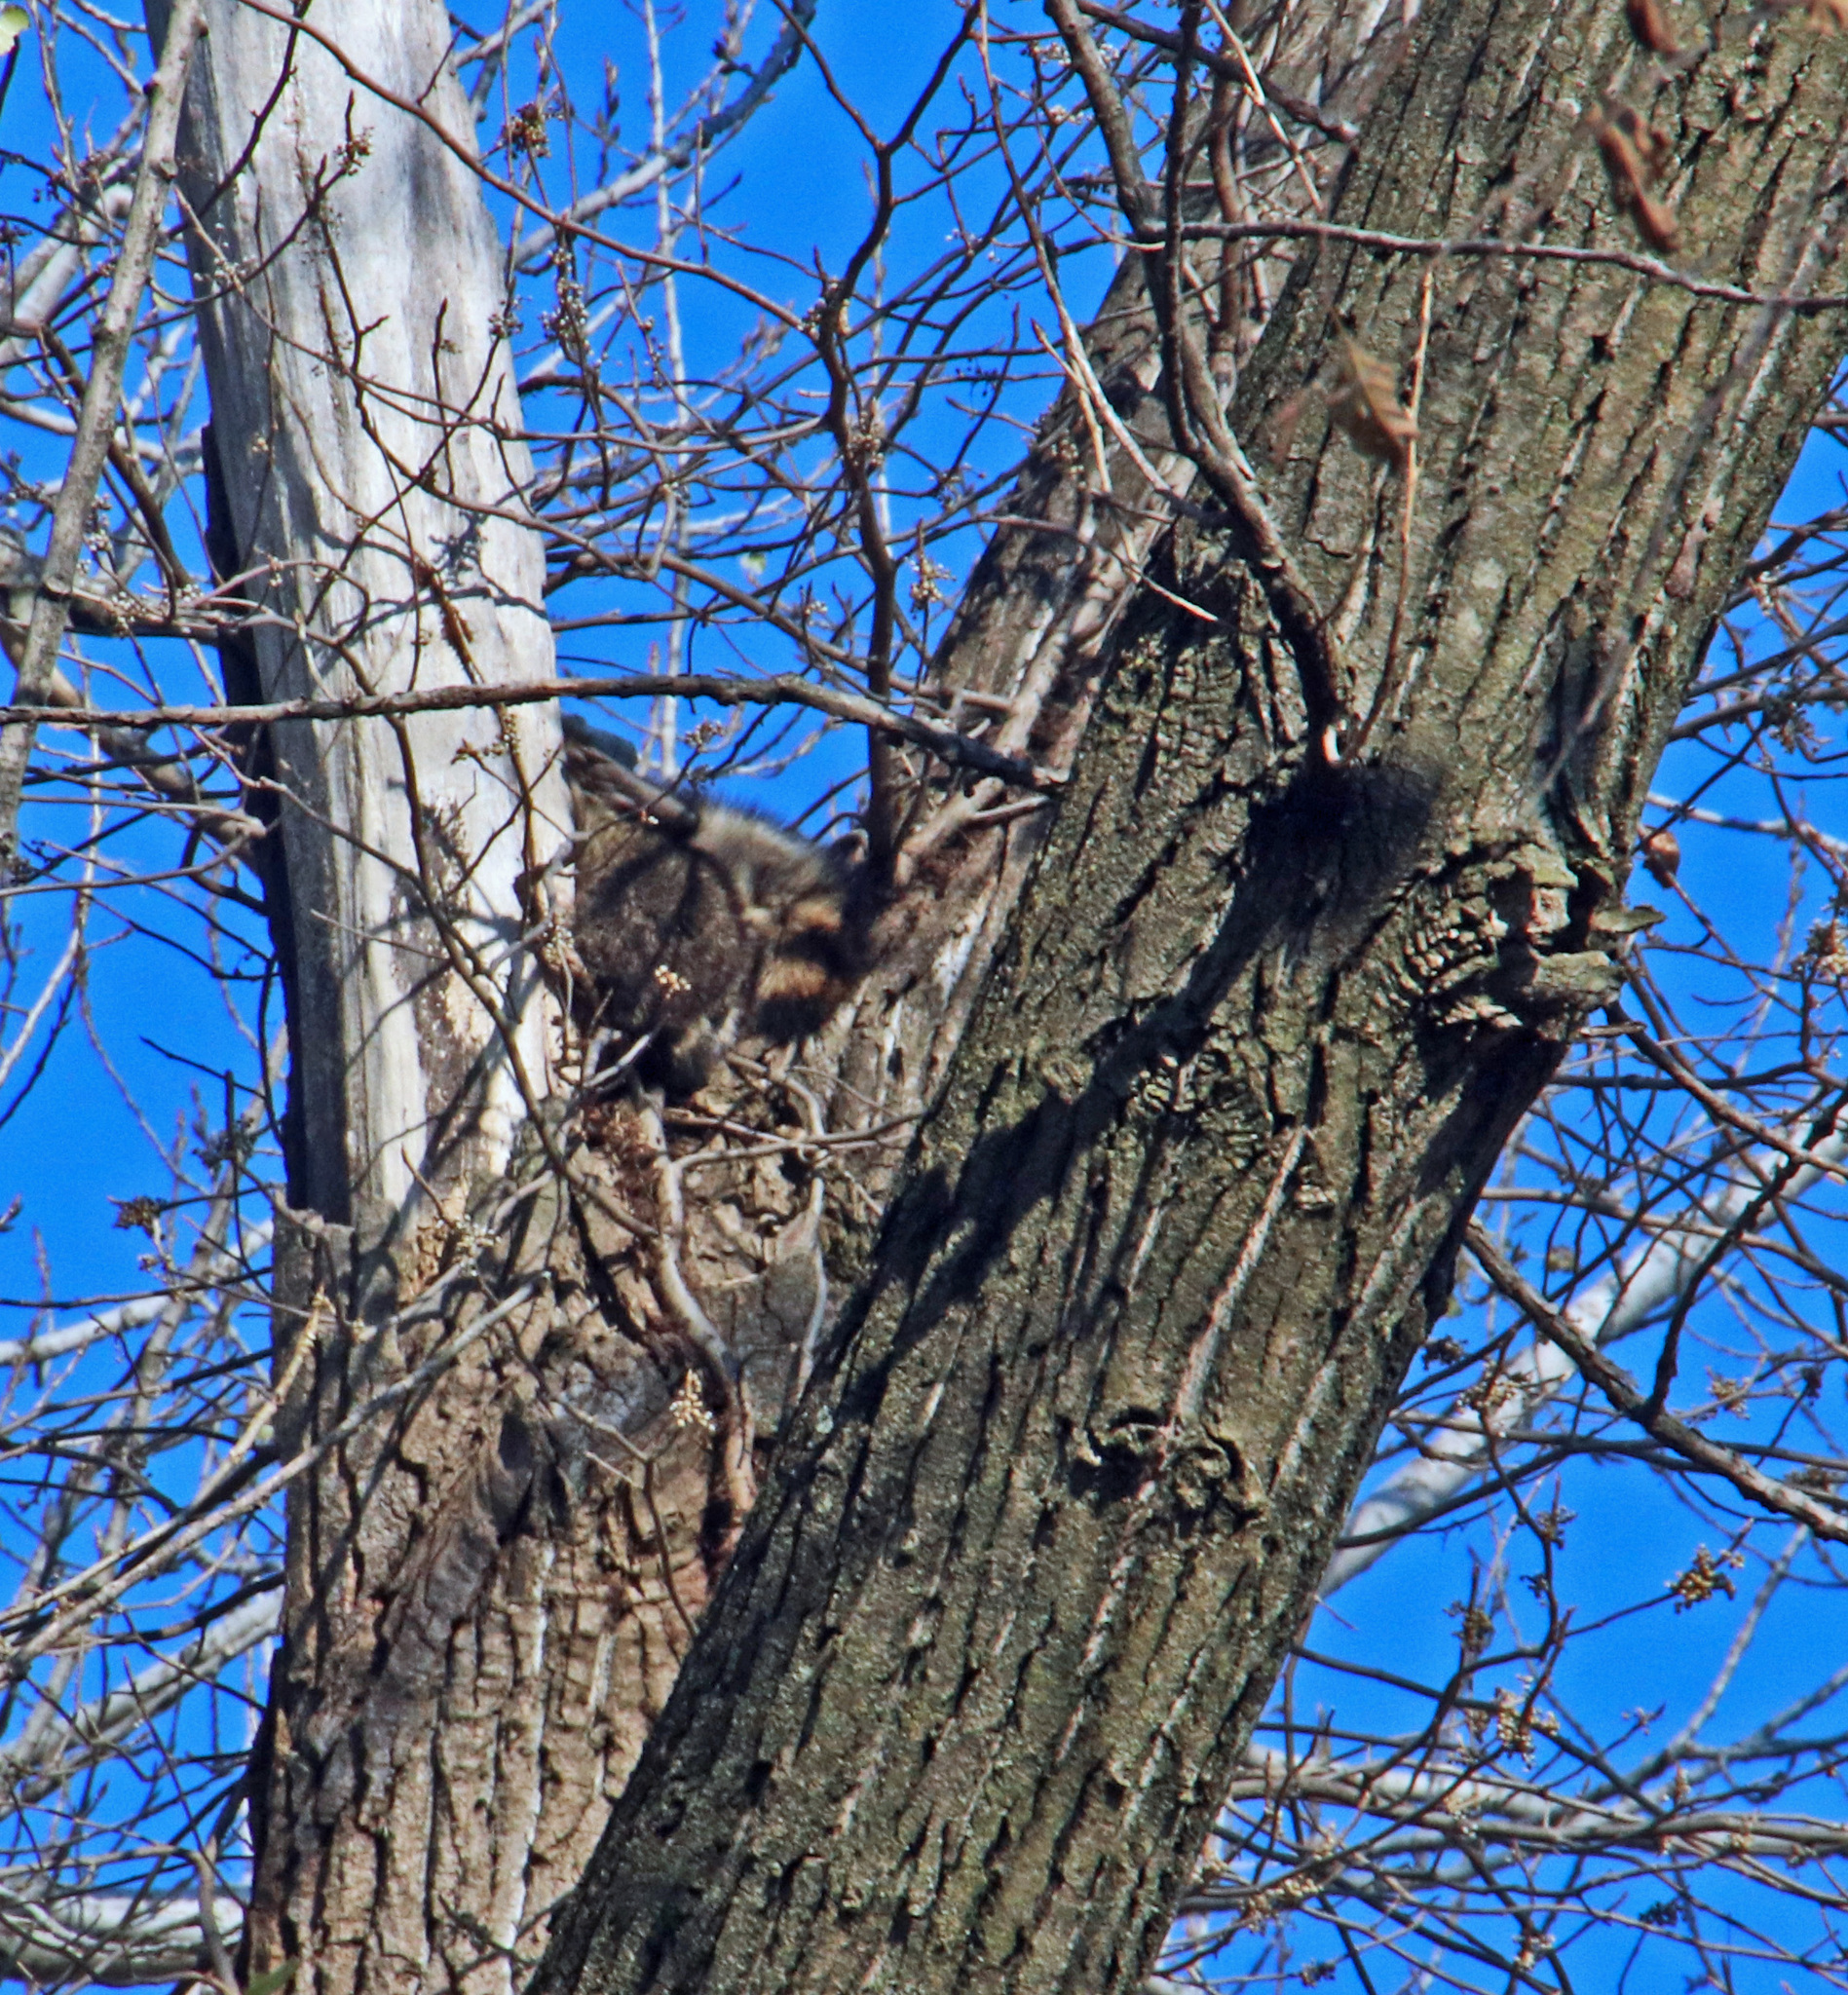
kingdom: Animalia
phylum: Chordata
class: Mammalia
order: Carnivora
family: Procyonidae
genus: Procyon
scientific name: Procyon lotor
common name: Raccoon
